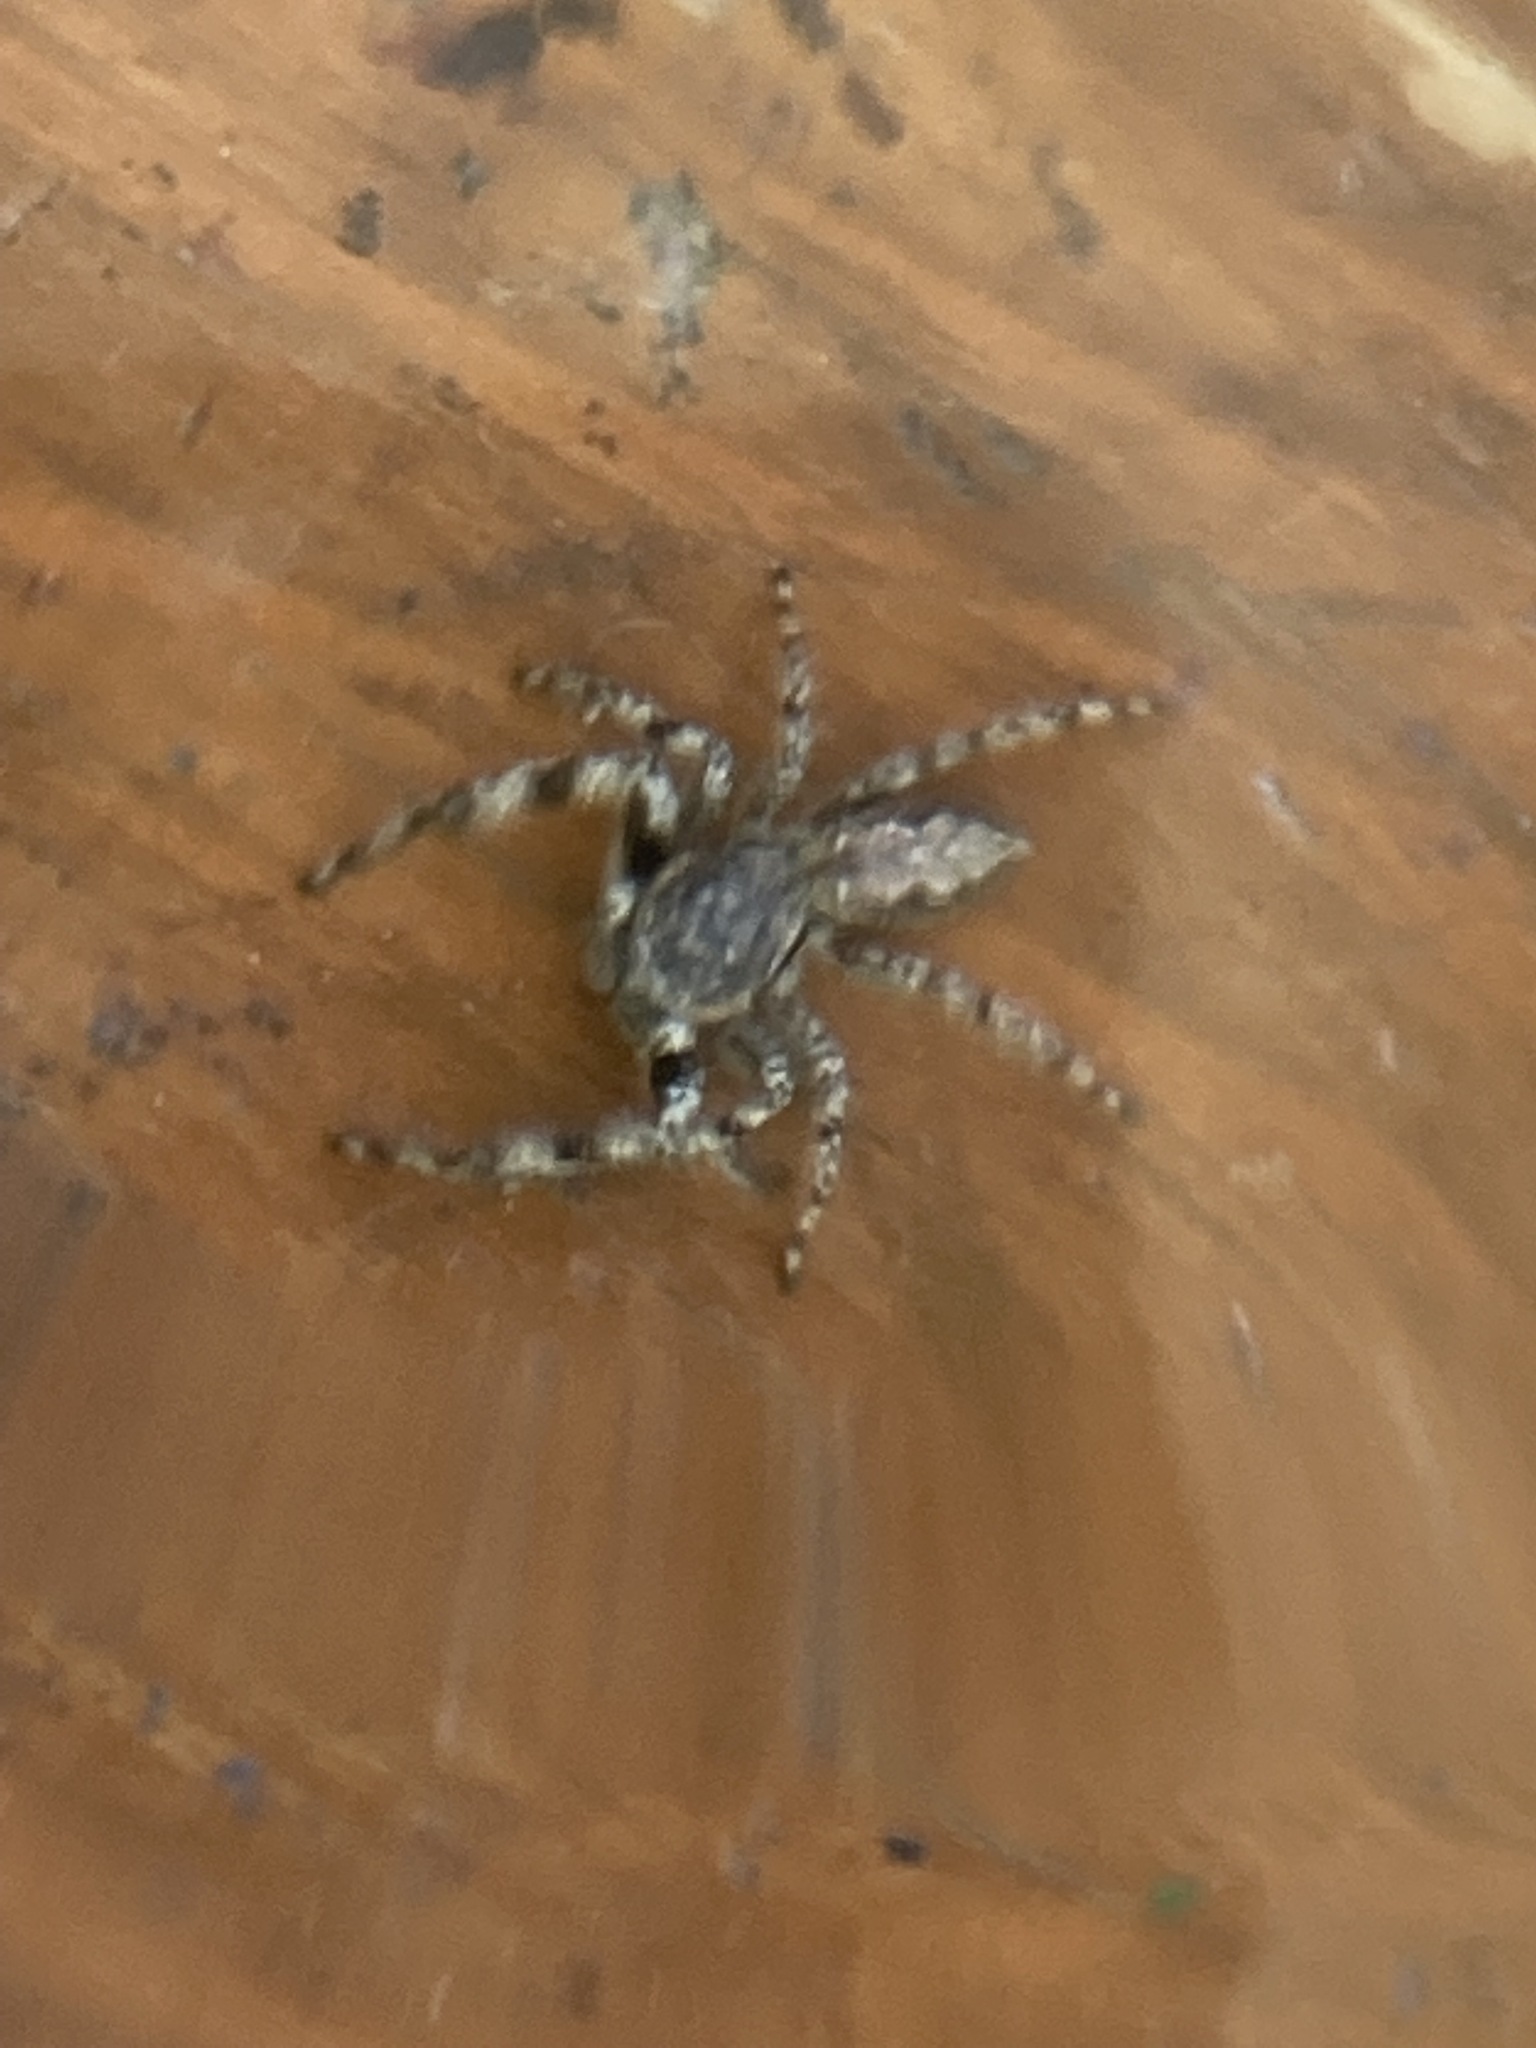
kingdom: Animalia
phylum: Arthropoda
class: Arachnida
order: Araneae
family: Salticidae
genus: Platycryptus
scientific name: Platycryptus undatus
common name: Tan jumping spider
